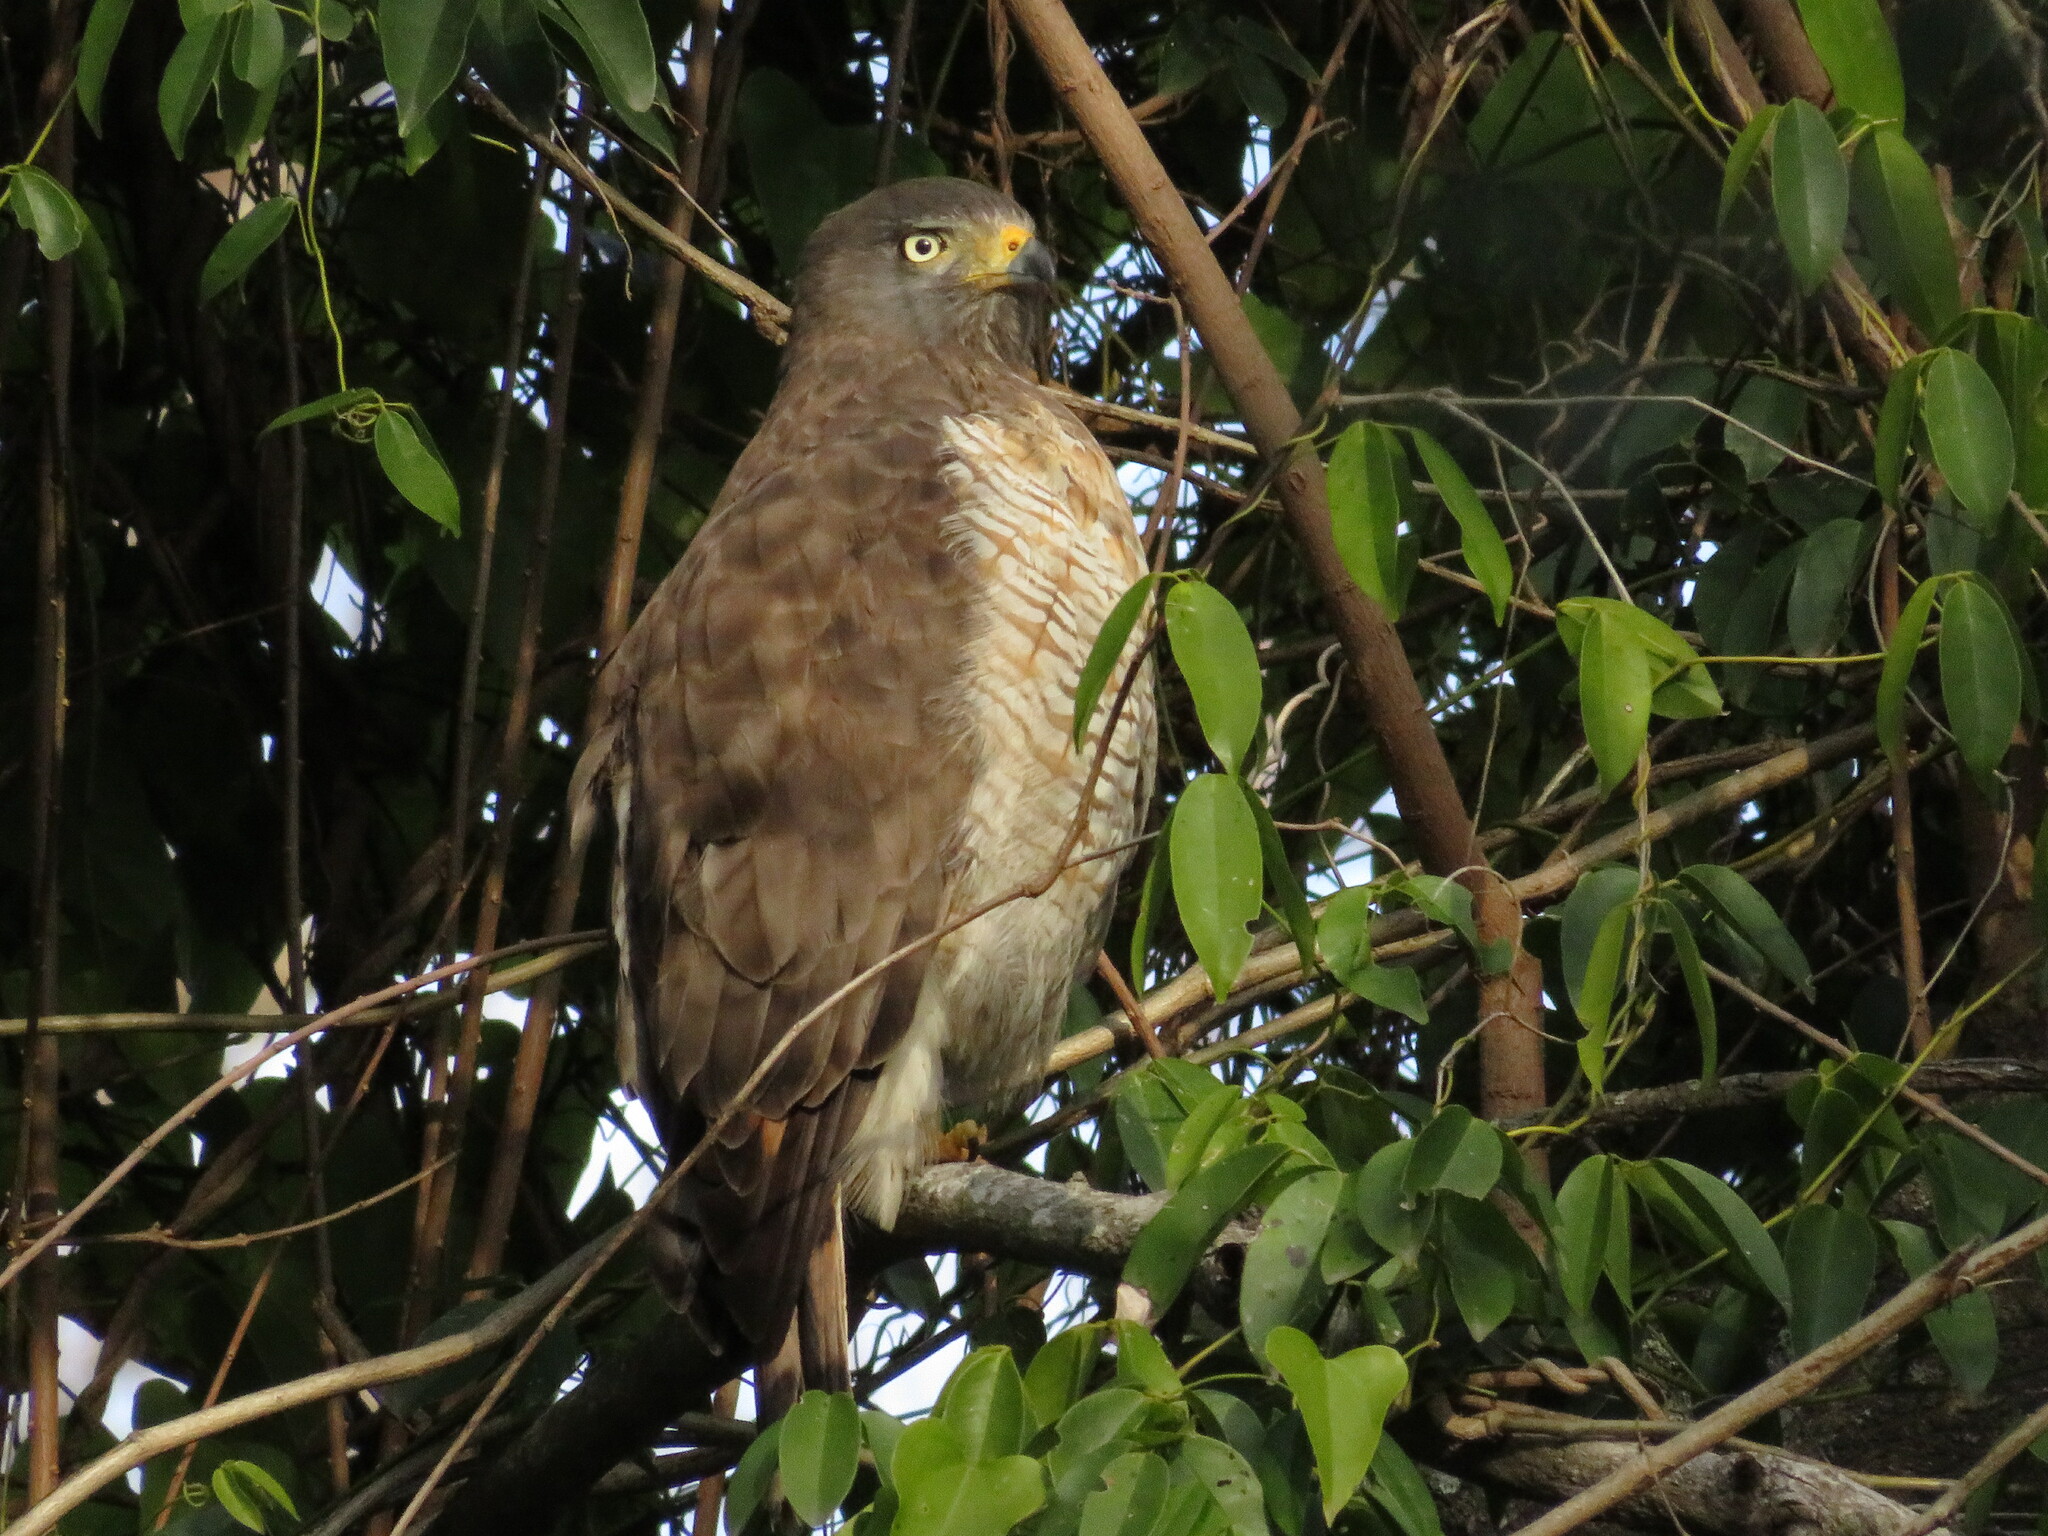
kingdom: Animalia
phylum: Chordata
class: Aves
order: Accipitriformes
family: Accipitridae
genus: Rupornis
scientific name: Rupornis magnirostris
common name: Roadside hawk
